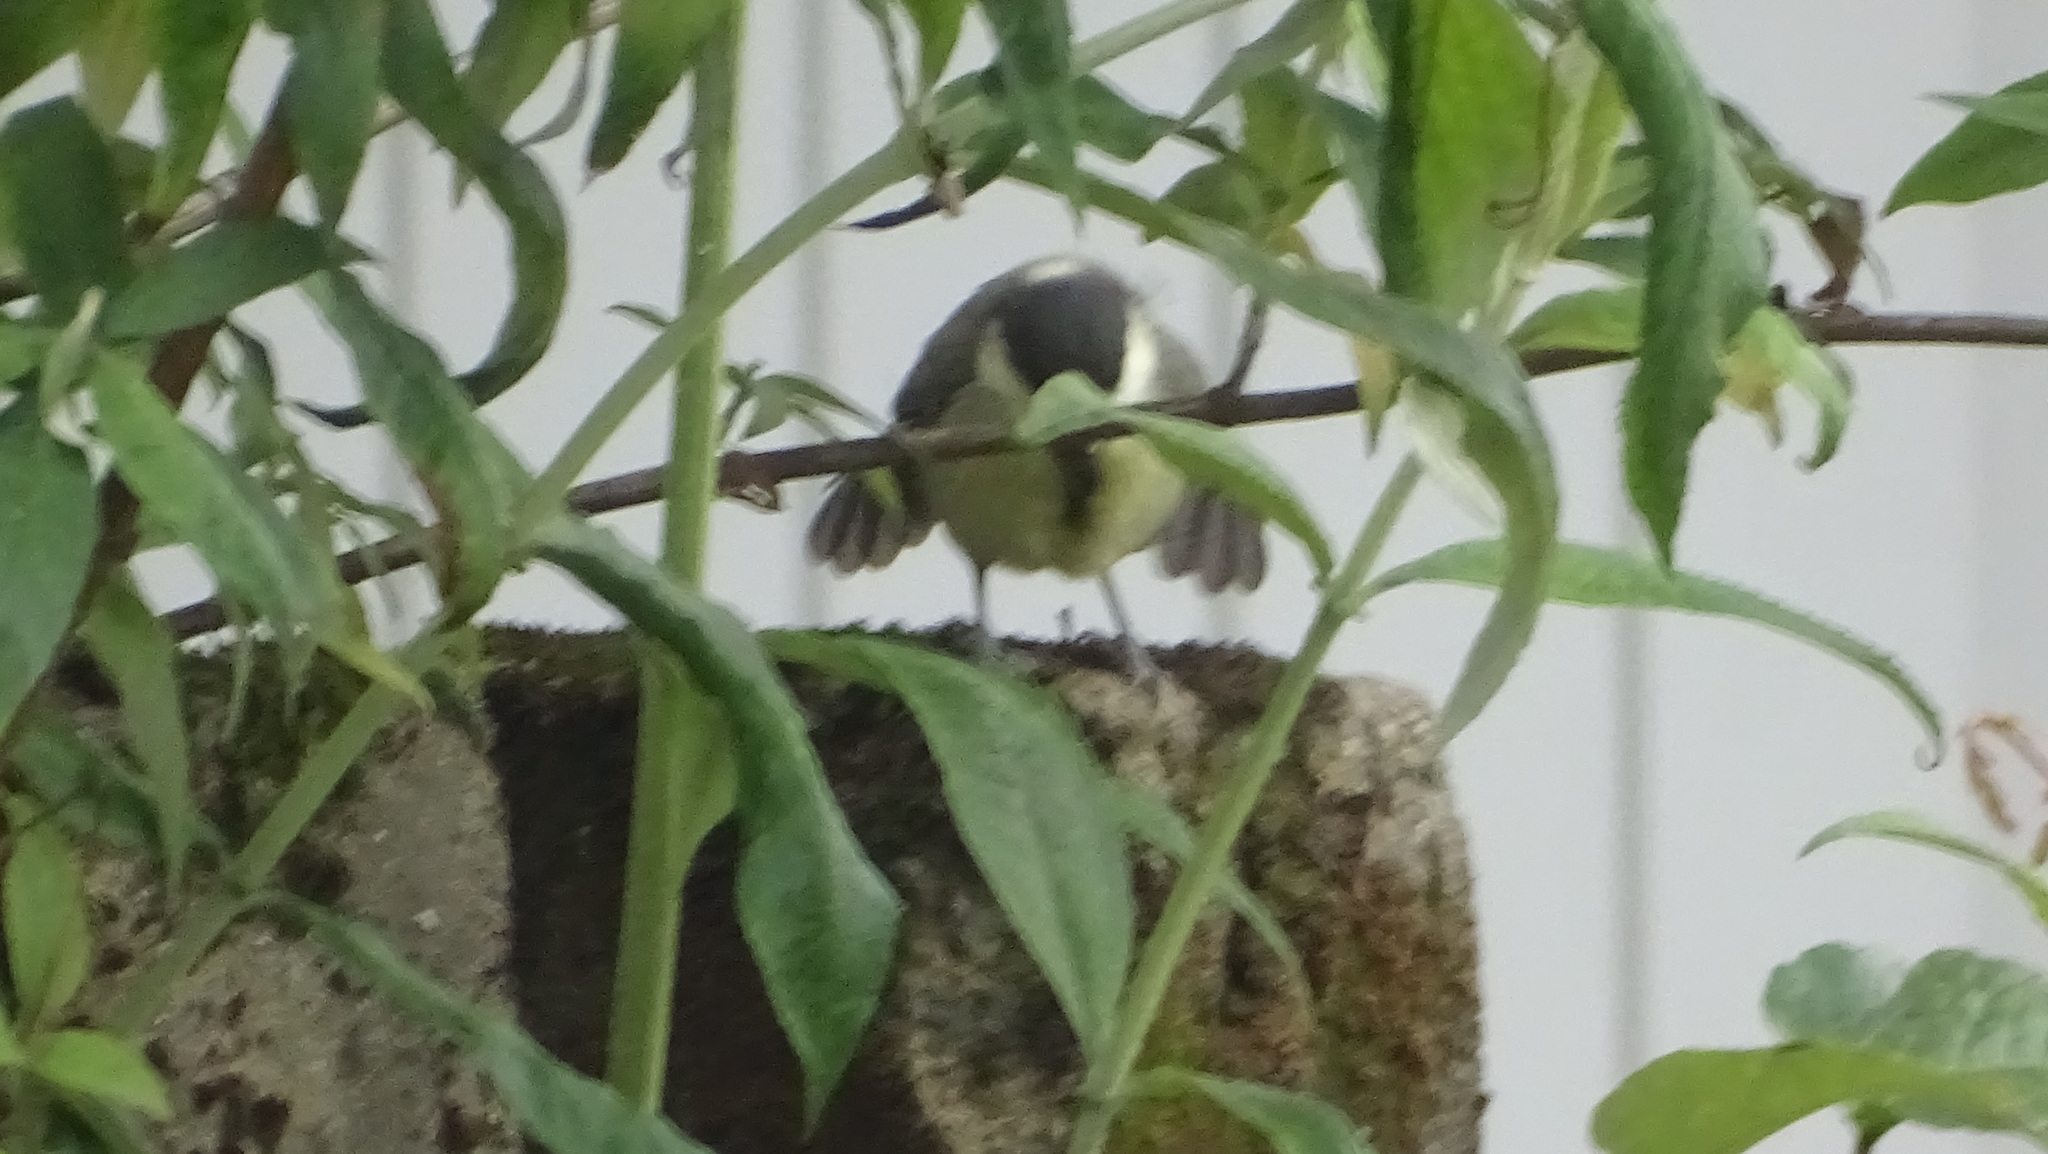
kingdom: Animalia
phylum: Chordata
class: Aves
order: Passeriformes
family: Paridae
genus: Parus
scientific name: Parus major
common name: Great tit
